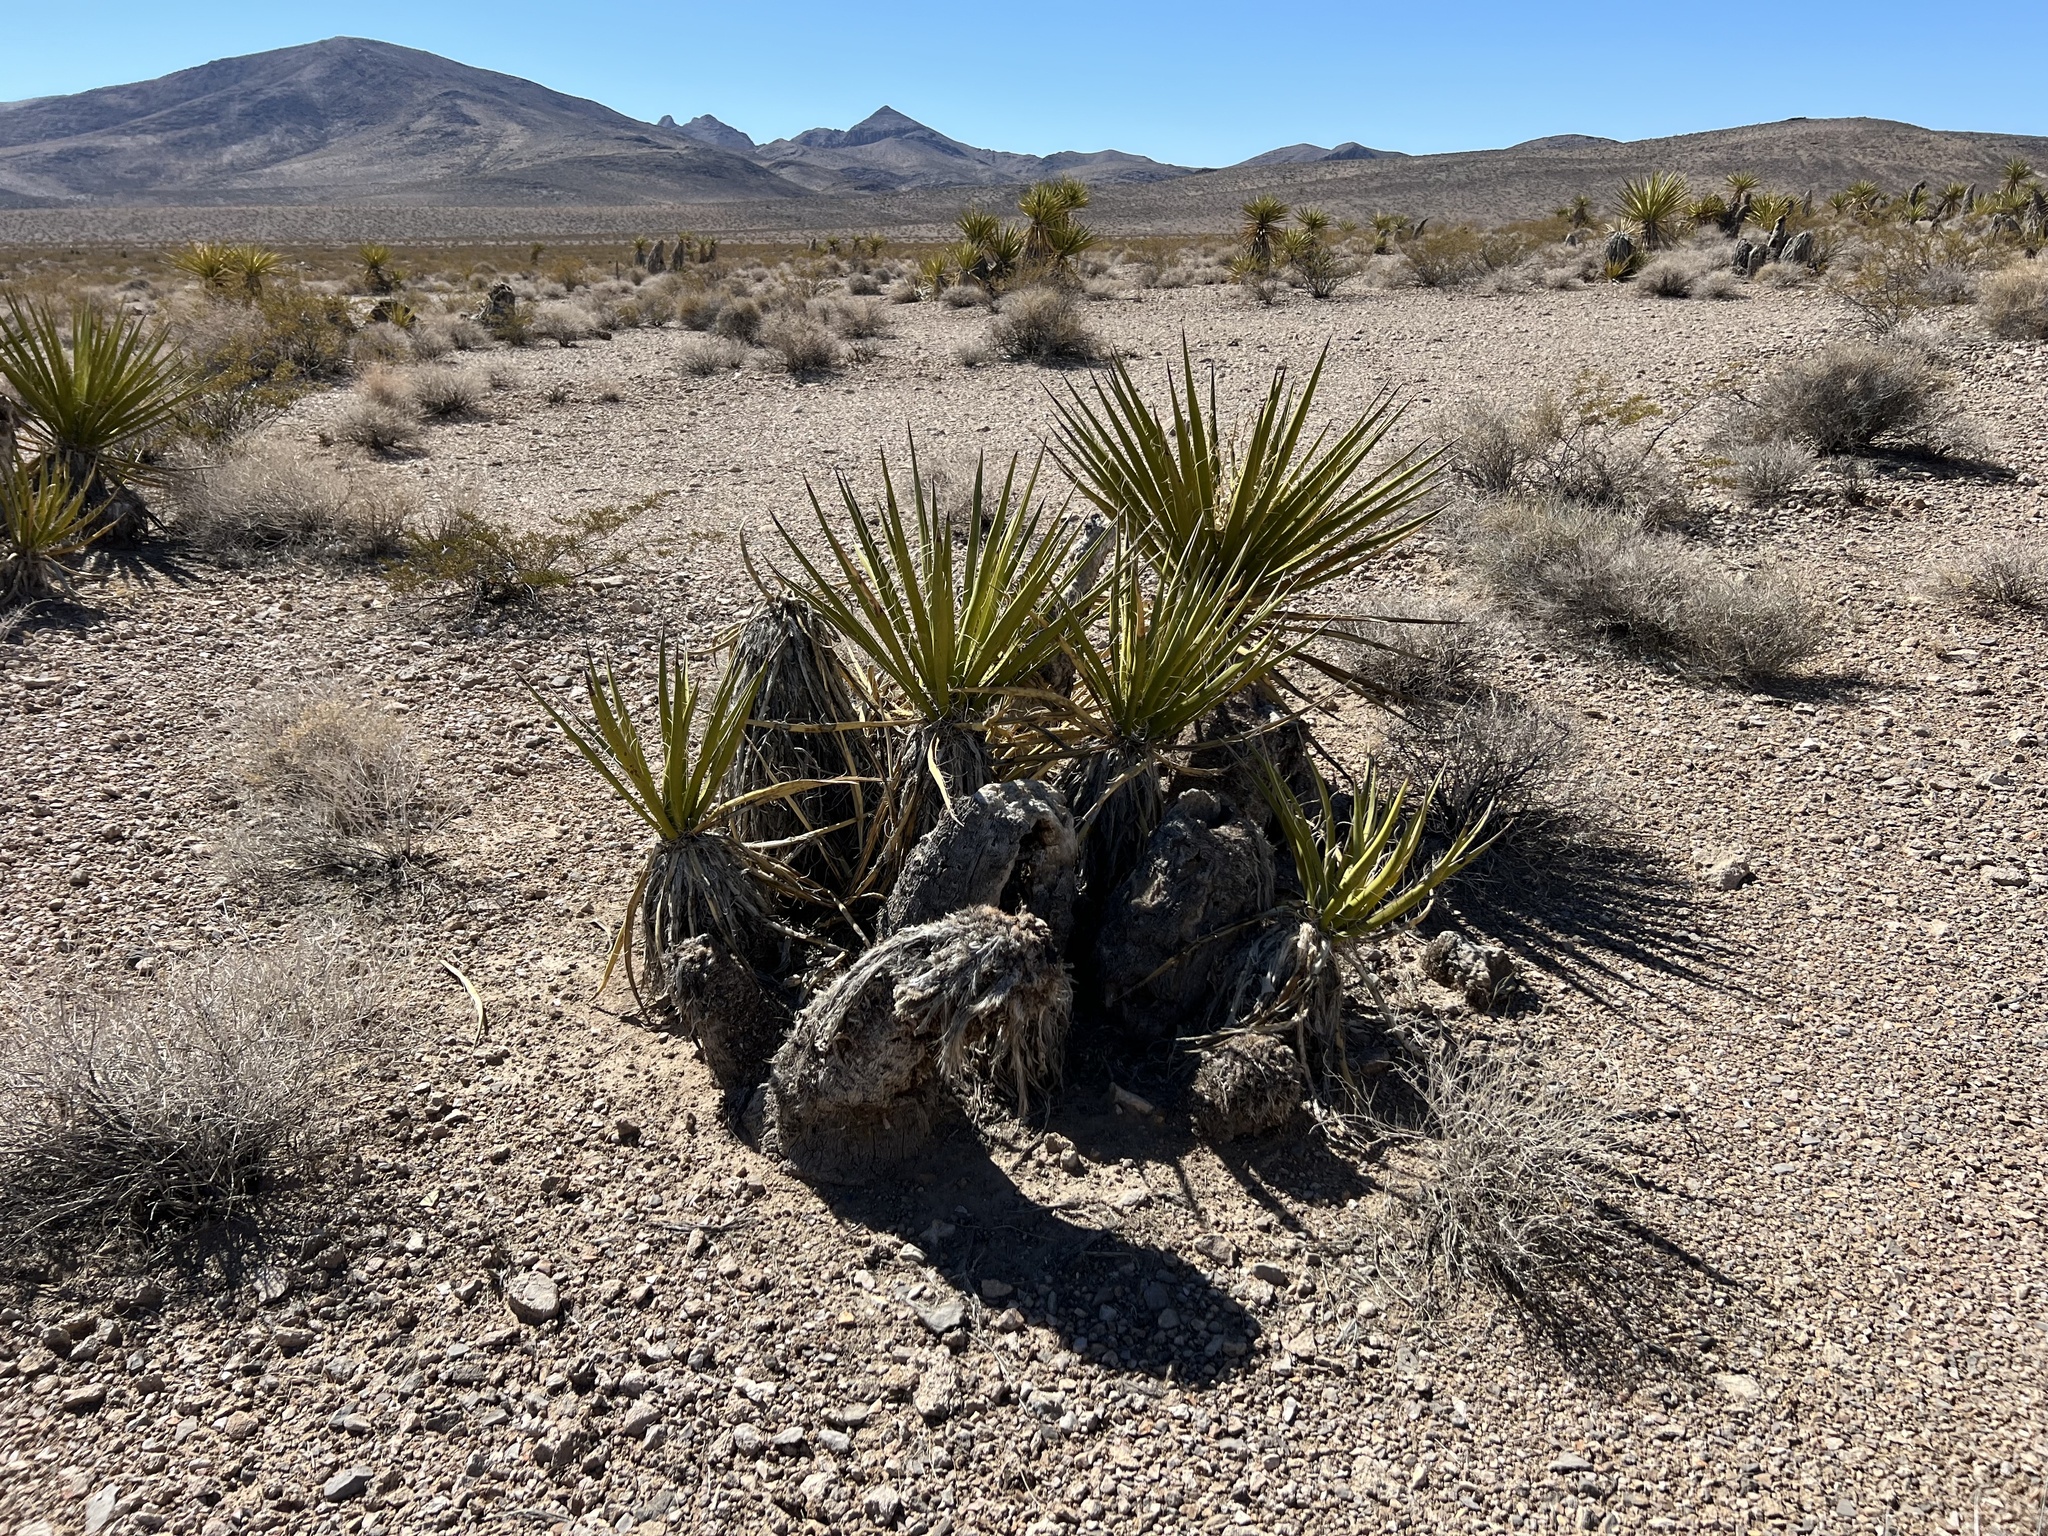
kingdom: Plantae
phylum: Tracheophyta
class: Liliopsida
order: Asparagales
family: Asparagaceae
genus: Yucca
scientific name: Yucca schidigera
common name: Mojave yucca
